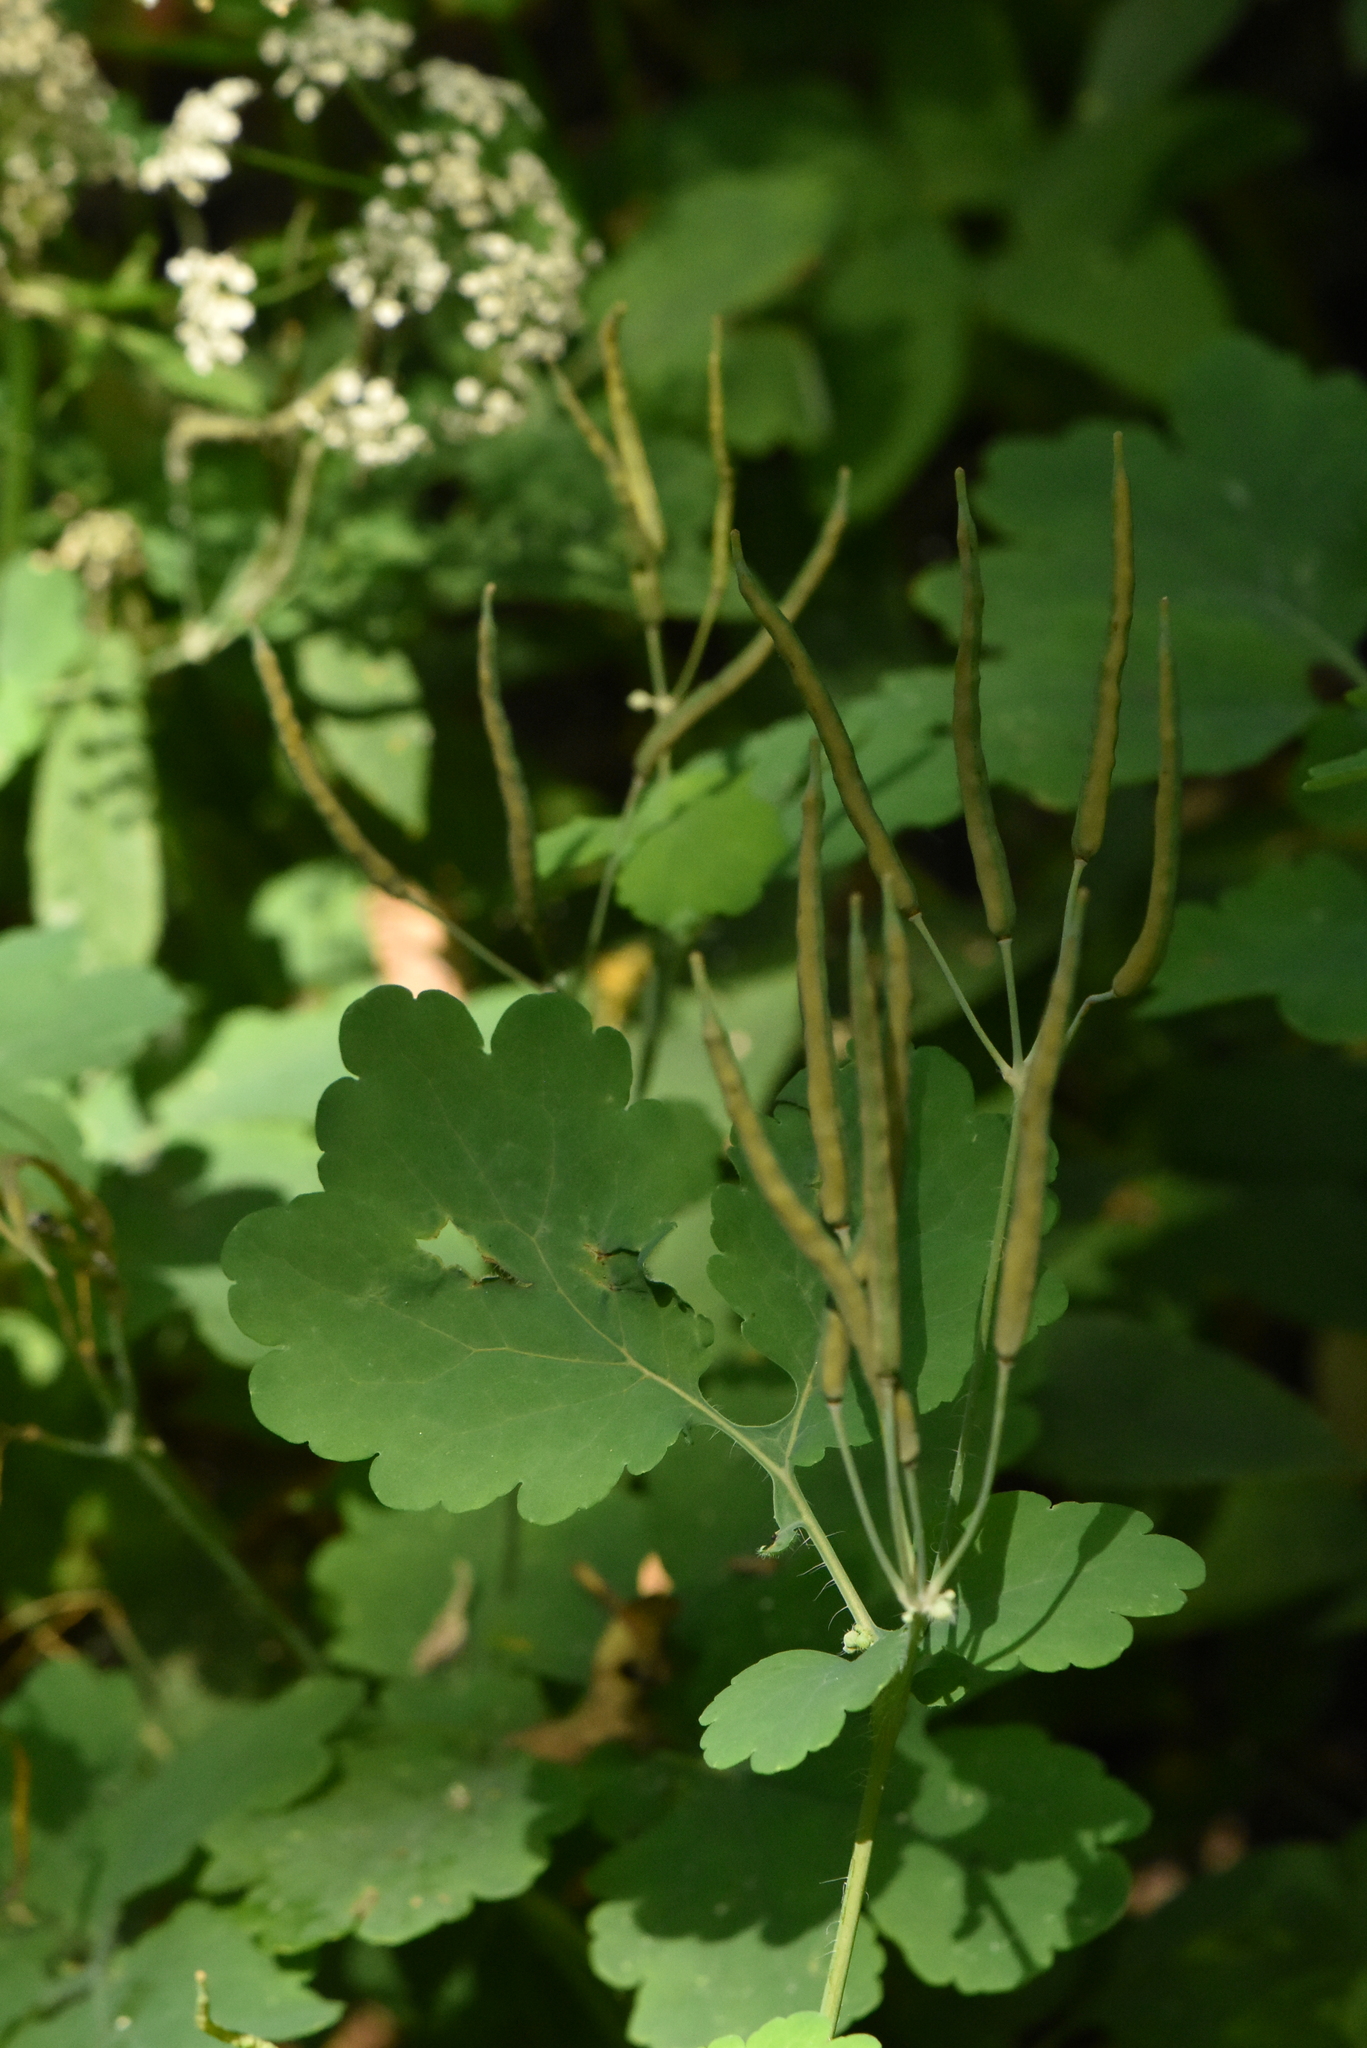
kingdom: Plantae
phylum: Tracheophyta
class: Magnoliopsida
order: Ranunculales
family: Papaveraceae
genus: Chelidonium
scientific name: Chelidonium majus
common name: Greater celandine
